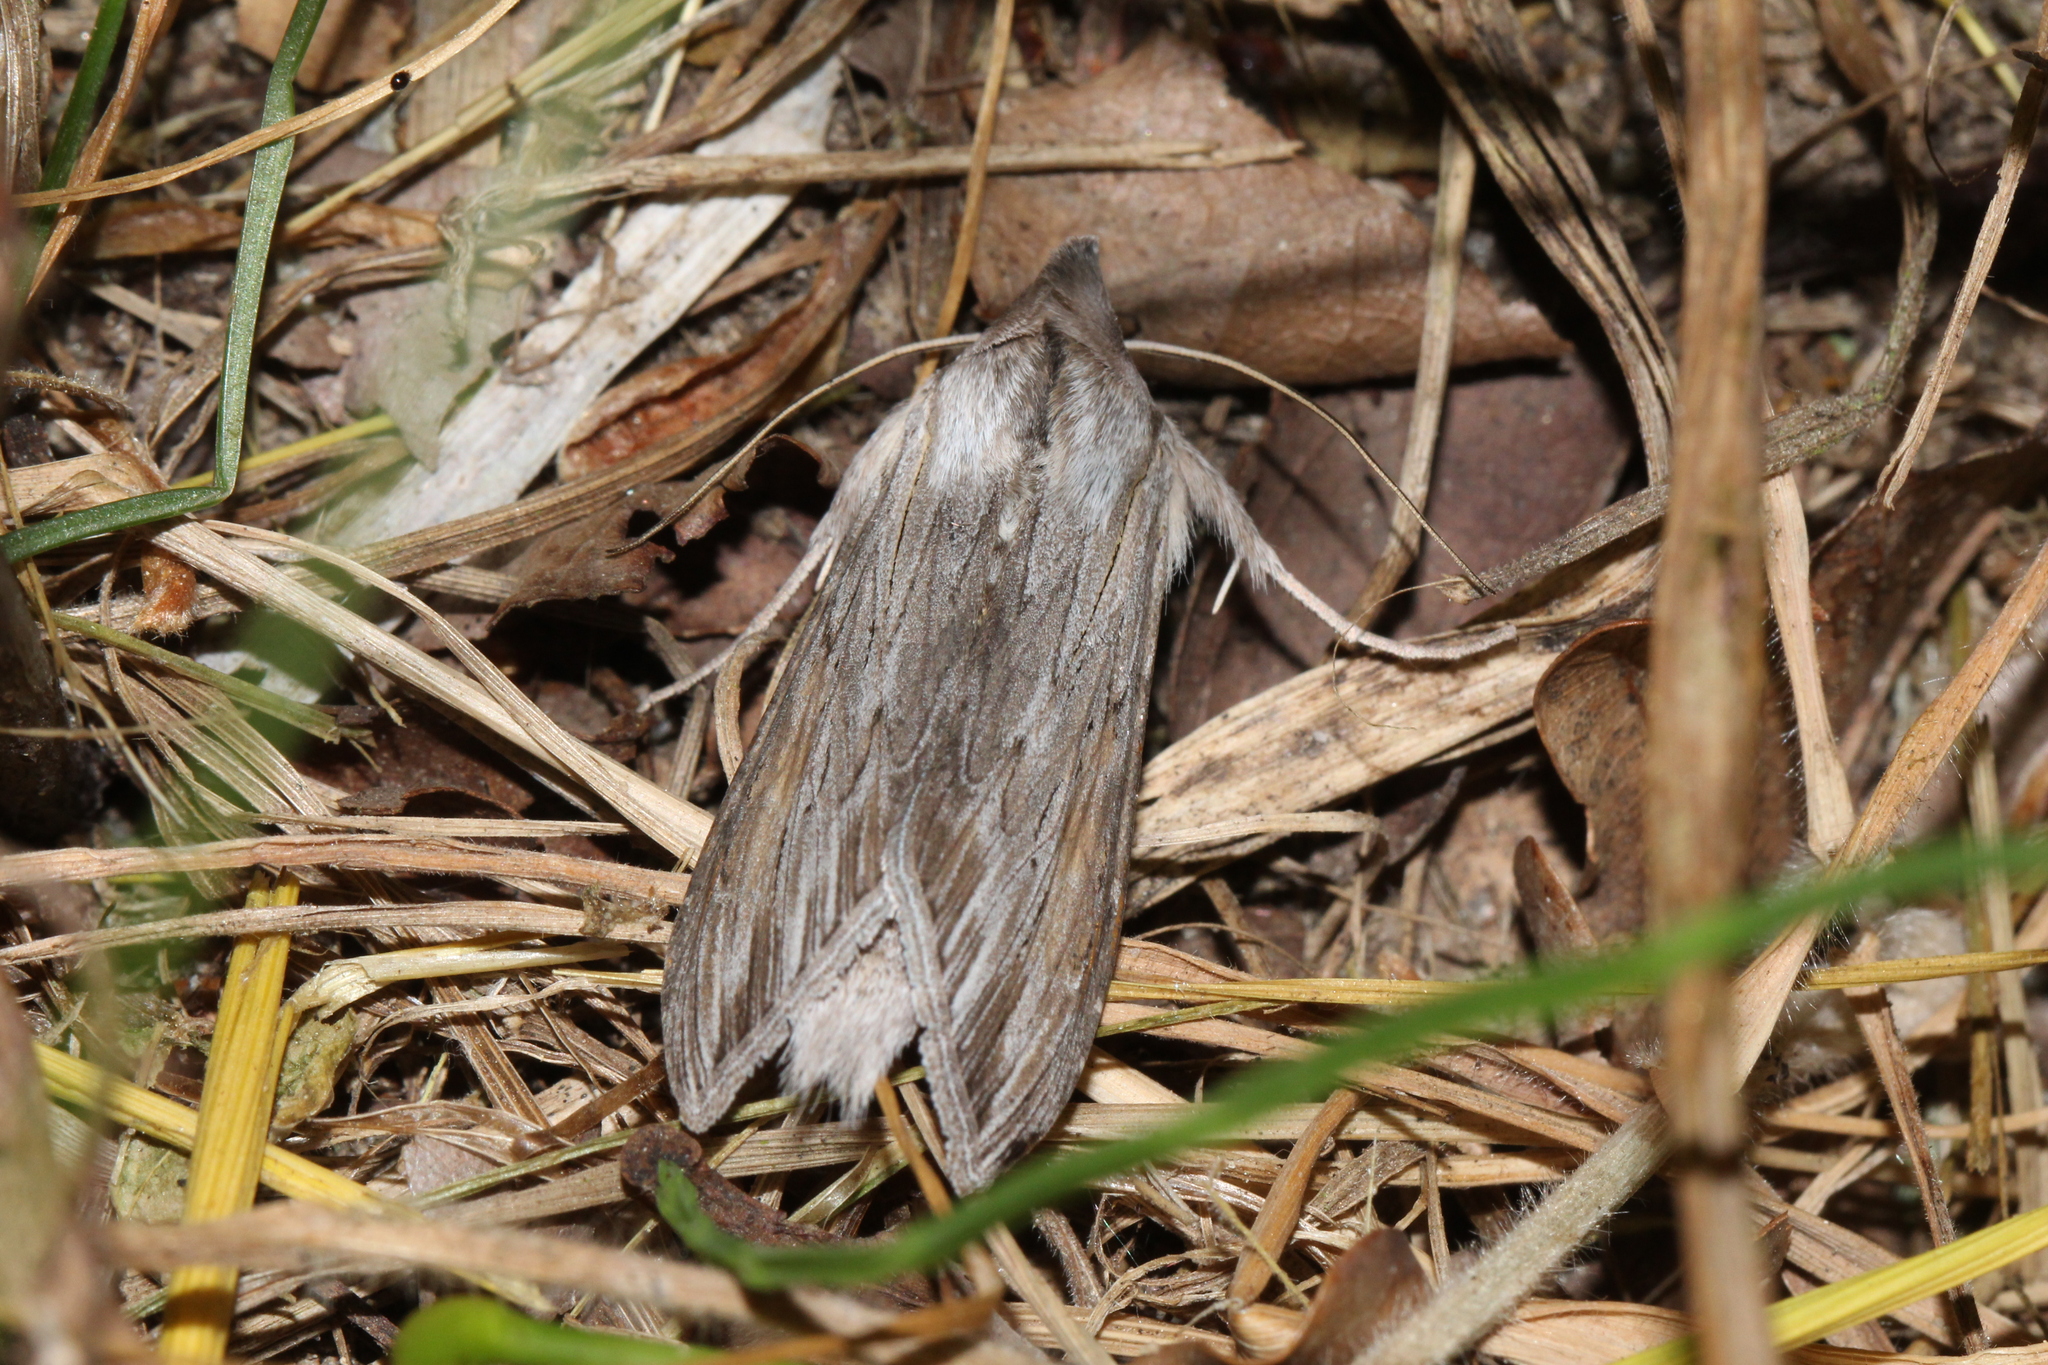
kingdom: Animalia
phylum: Arthropoda
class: Insecta
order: Lepidoptera
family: Noctuidae
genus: Cucullia
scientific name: Cucullia umbratica
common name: Shark
